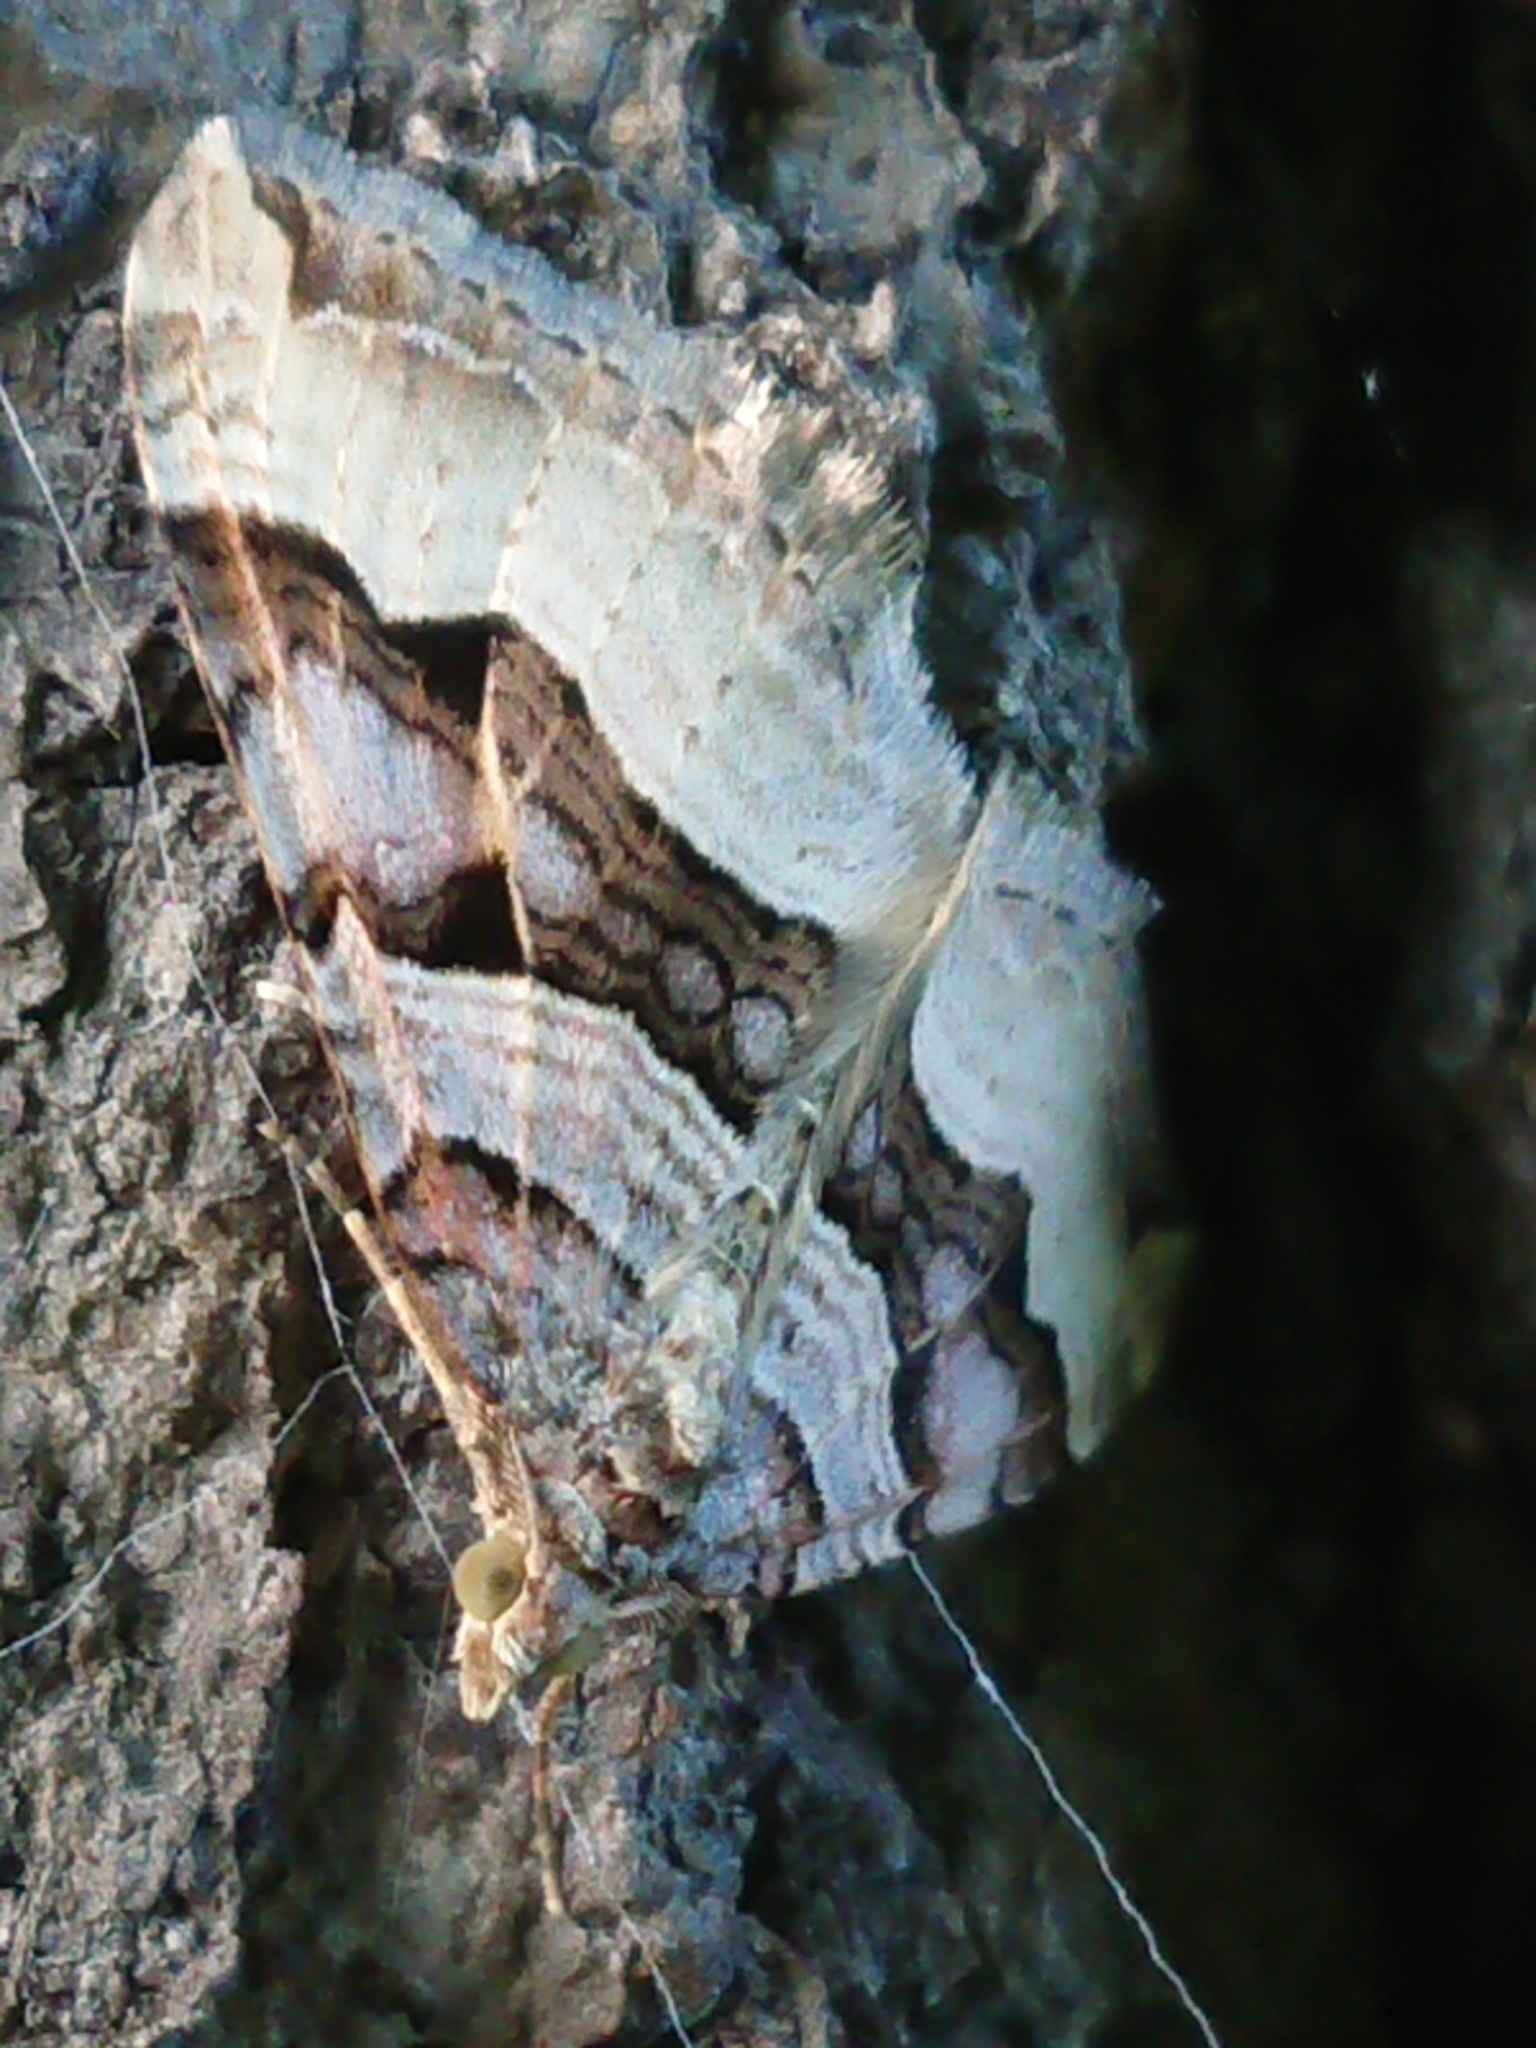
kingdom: Animalia
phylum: Arthropoda
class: Insecta
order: Lepidoptera
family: Geometridae
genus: Xanthorhoe
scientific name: Xanthorhoe semifissata
